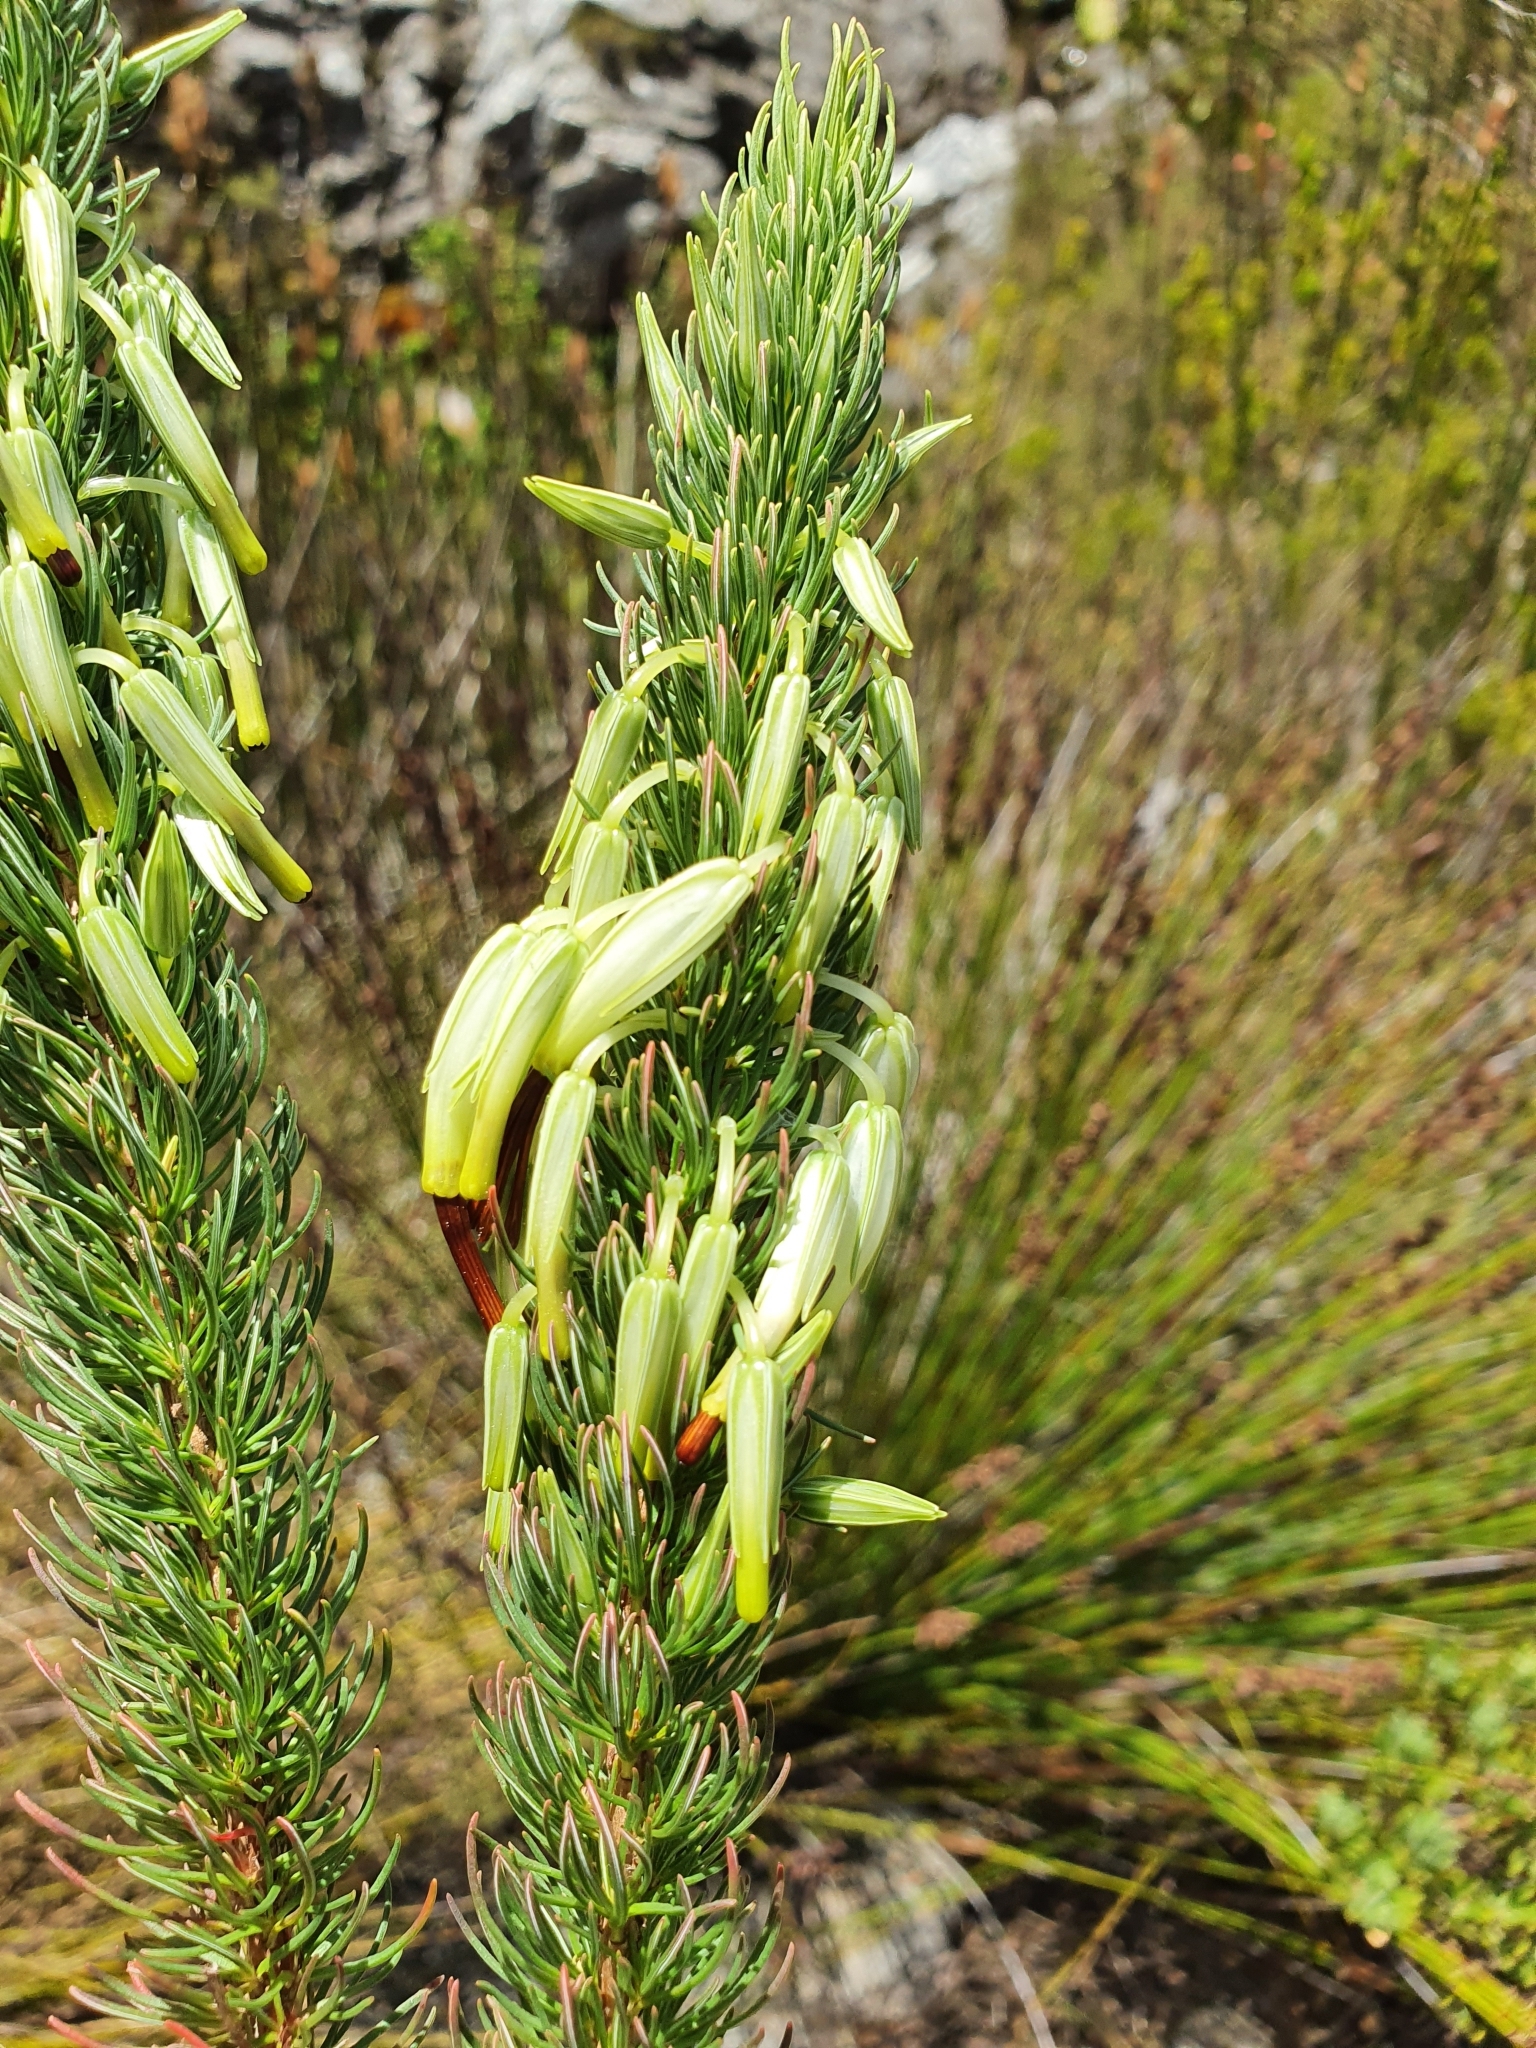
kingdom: Plantae
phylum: Tracheophyta
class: Magnoliopsida
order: Ericales
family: Ericaceae
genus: Erica
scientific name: Erica plukenetii
